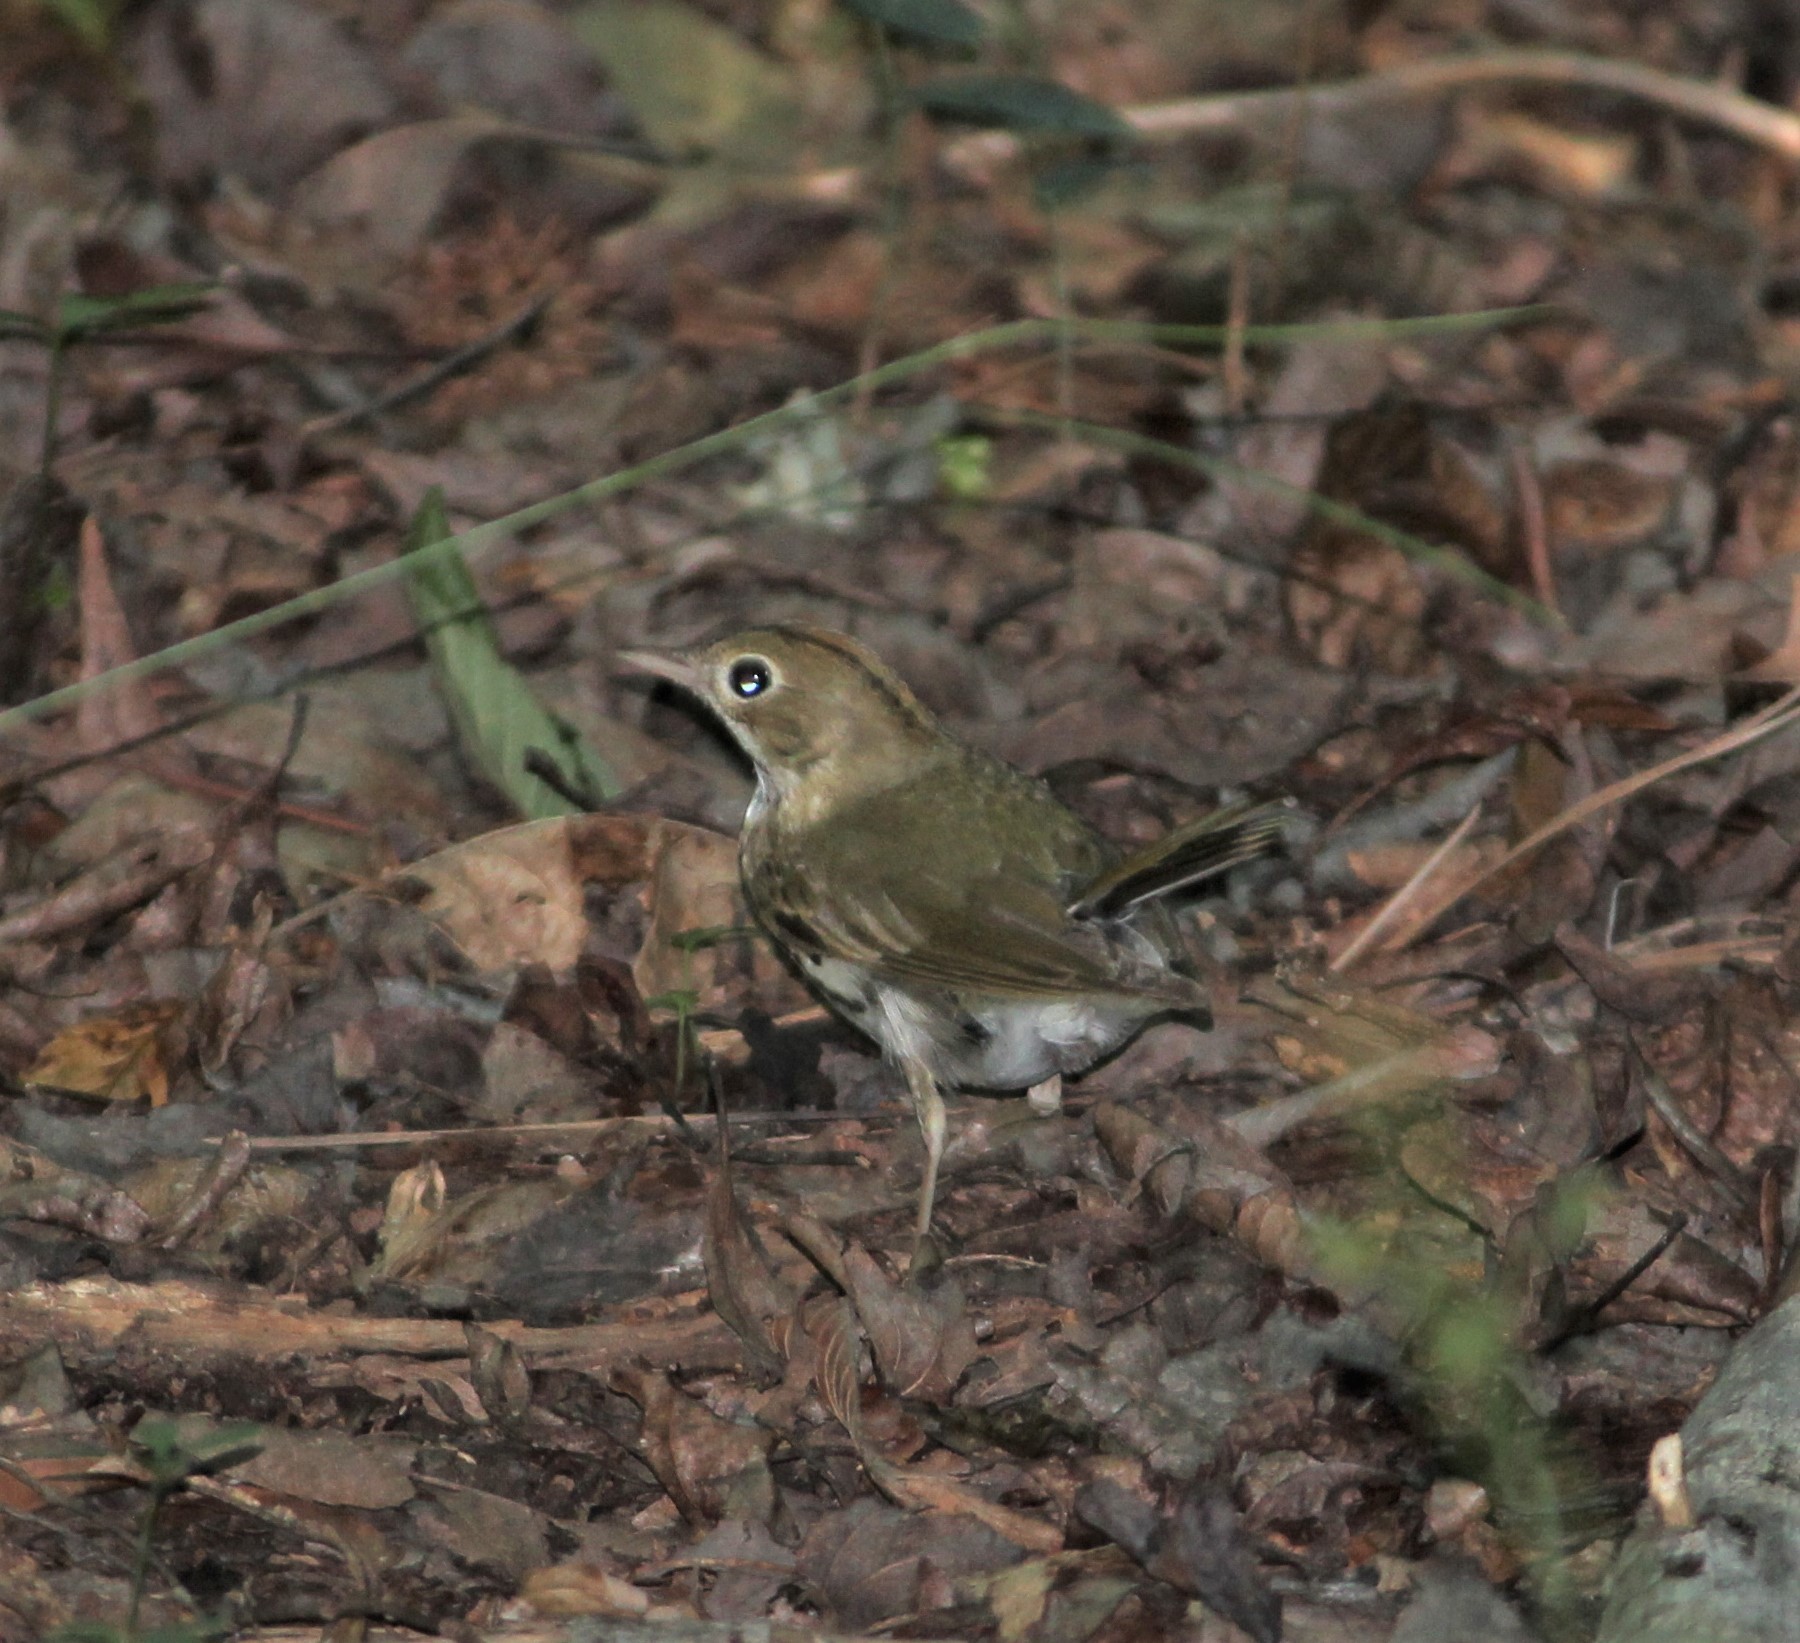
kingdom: Animalia
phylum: Chordata
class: Aves
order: Passeriformes
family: Parulidae
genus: Seiurus
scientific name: Seiurus aurocapilla
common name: Ovenbird
